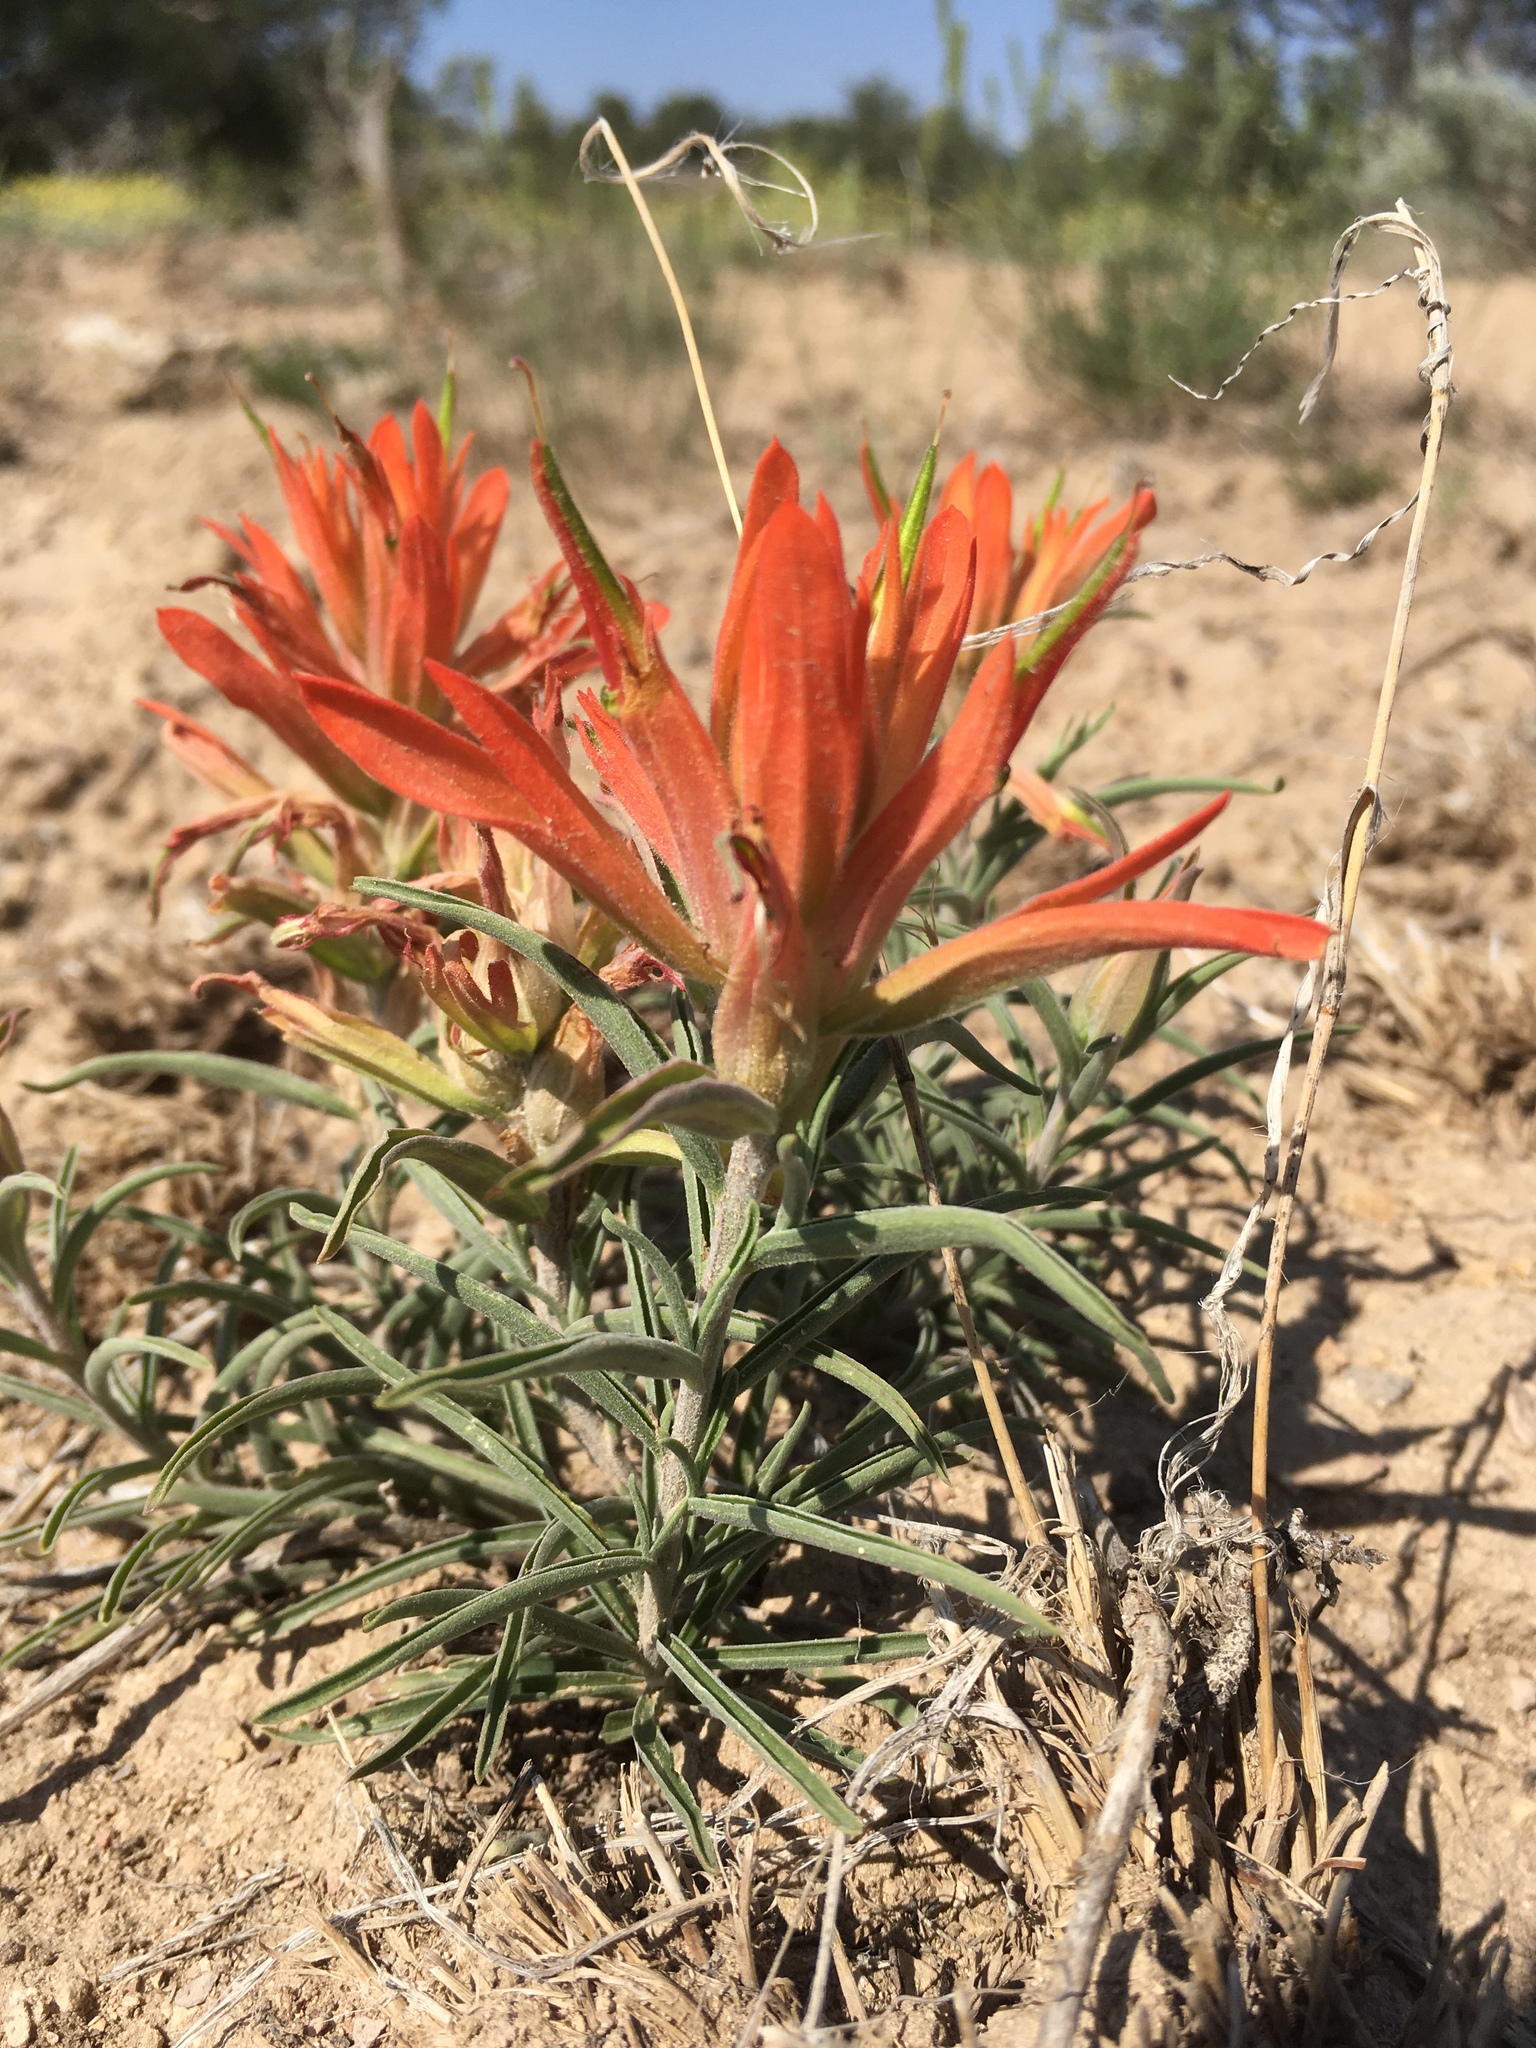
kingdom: Plantae
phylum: Tracheophyta
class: Magnoliopsida
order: Lamiales
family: Orobanchaceae
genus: Castilleja
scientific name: Castilleja integra
